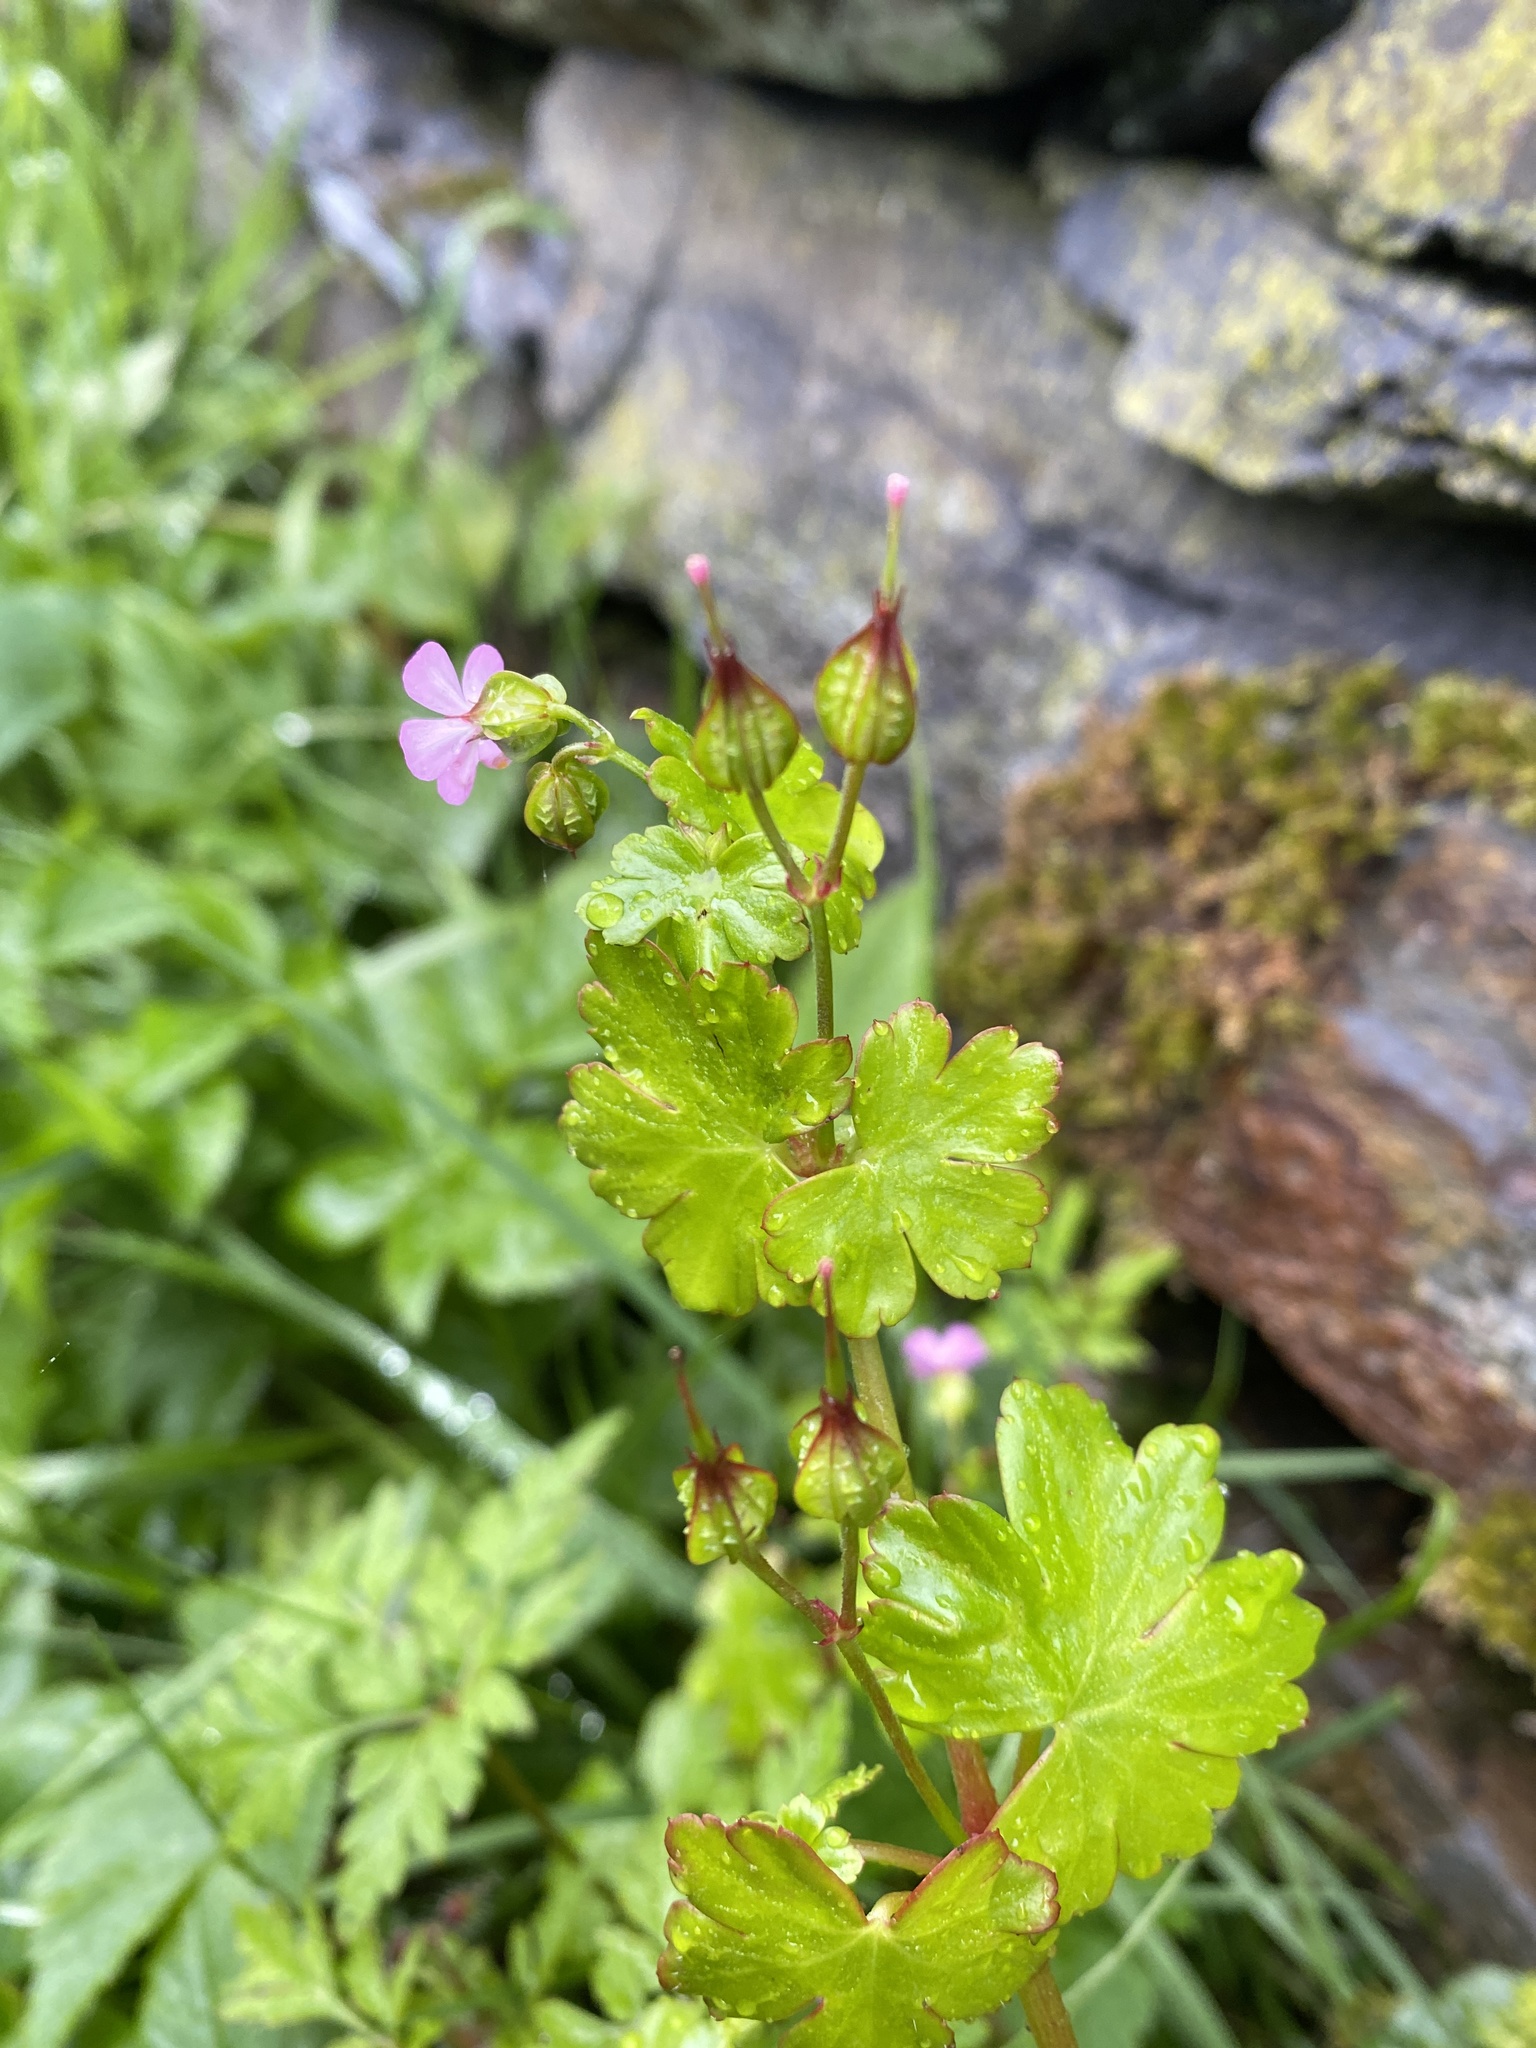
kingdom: Plantae
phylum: Tracheophyta
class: Magnoliopsida
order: Geraniales
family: Geraniaceae
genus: Geranium
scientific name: Geranium lucidum
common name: Shining crane's-bill
